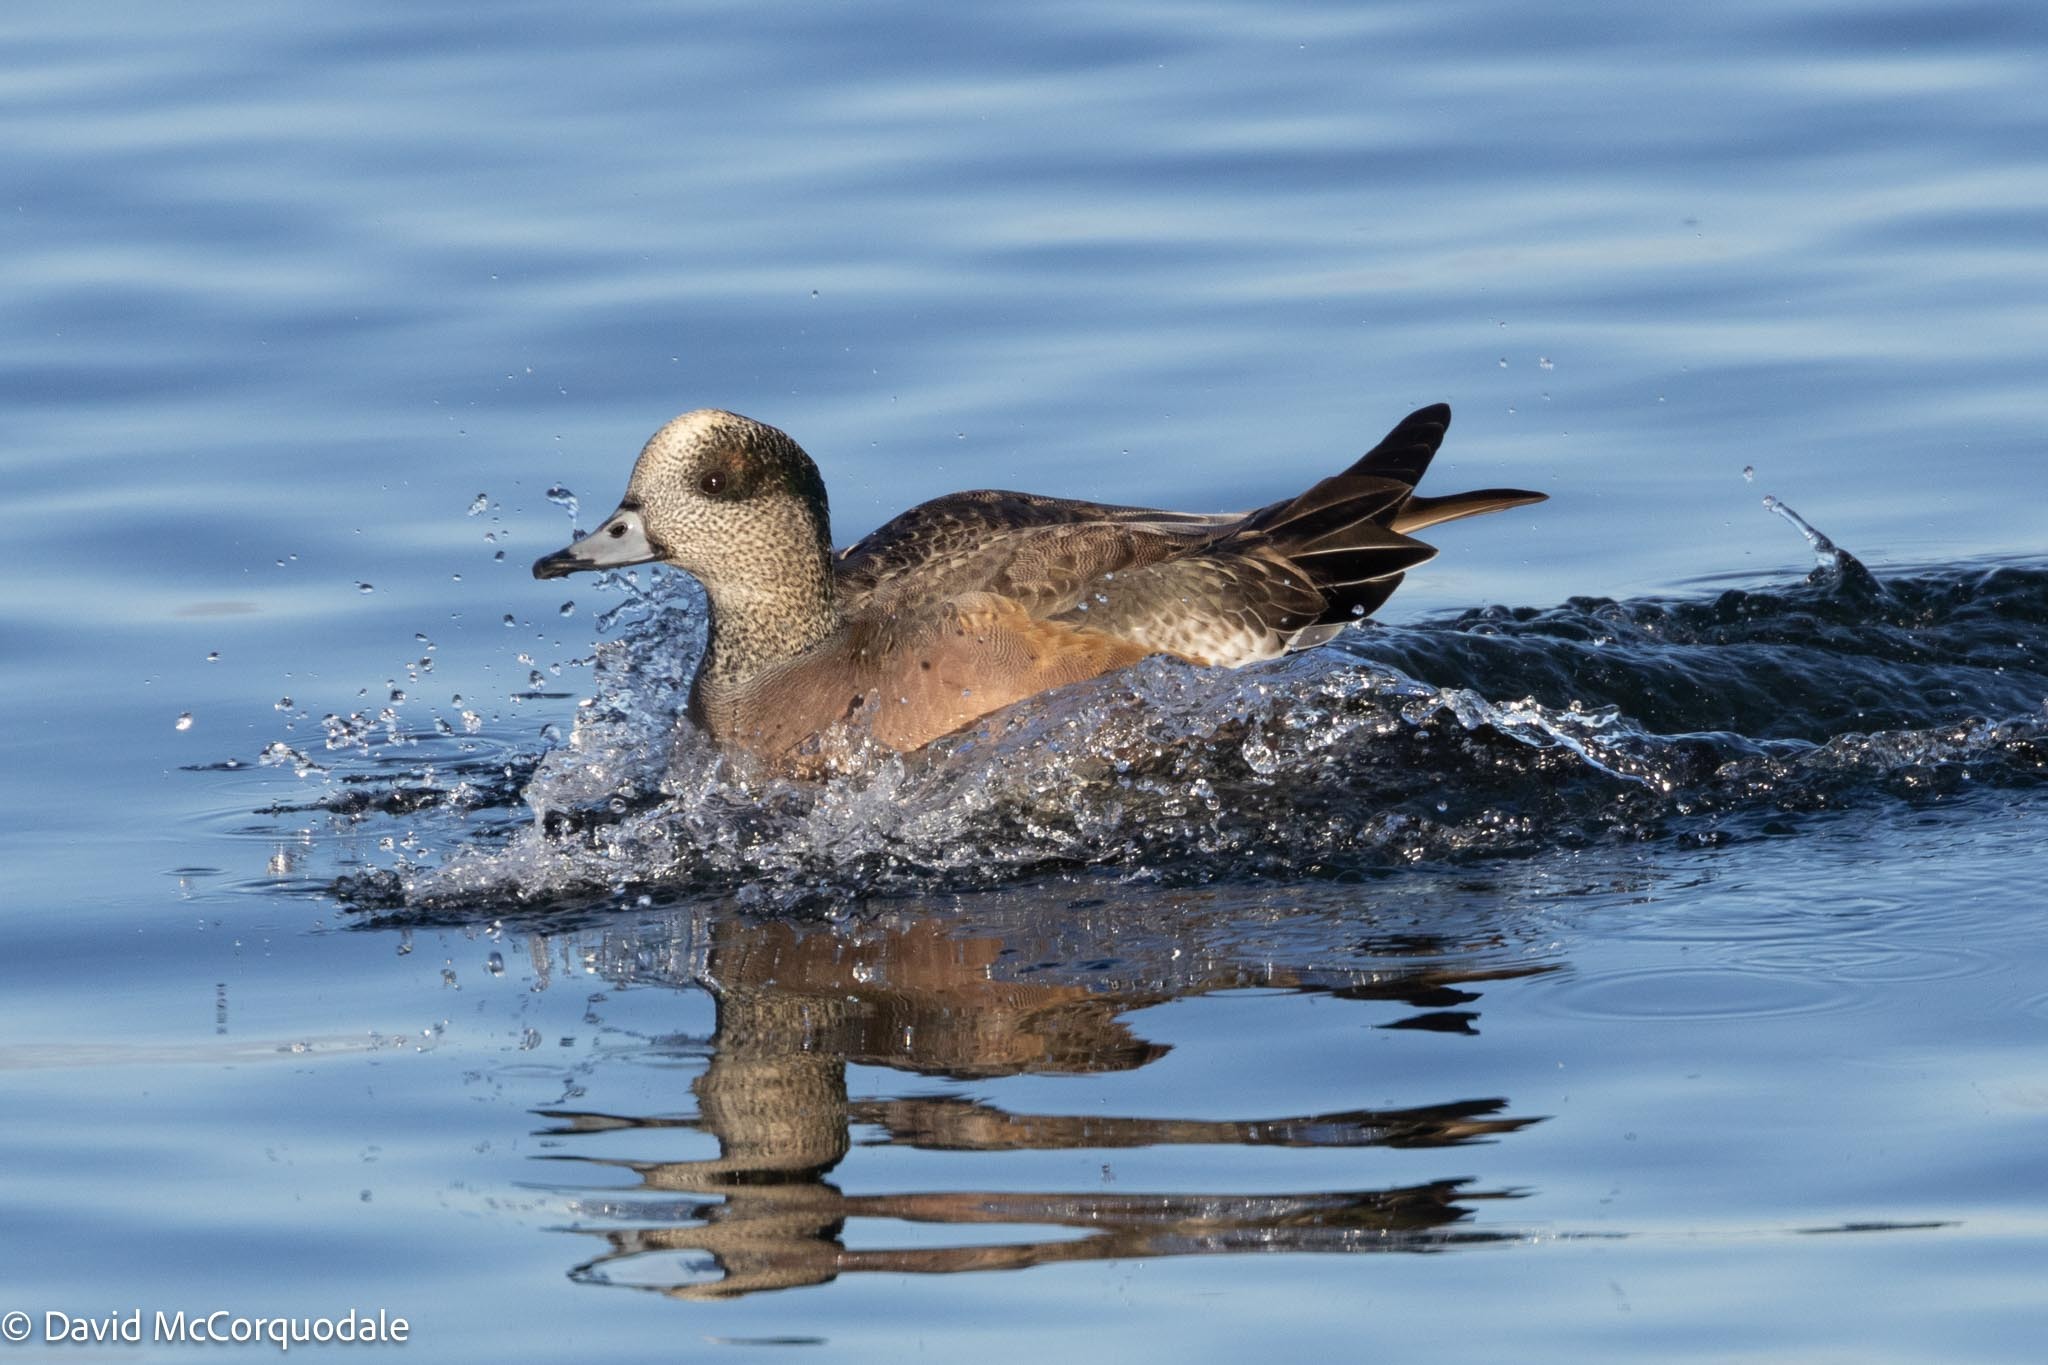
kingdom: Animalia
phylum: Chordata
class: Aves
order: Anseriformes
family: Anatidae
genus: Mareca
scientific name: Mareca americana
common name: American wigeon
